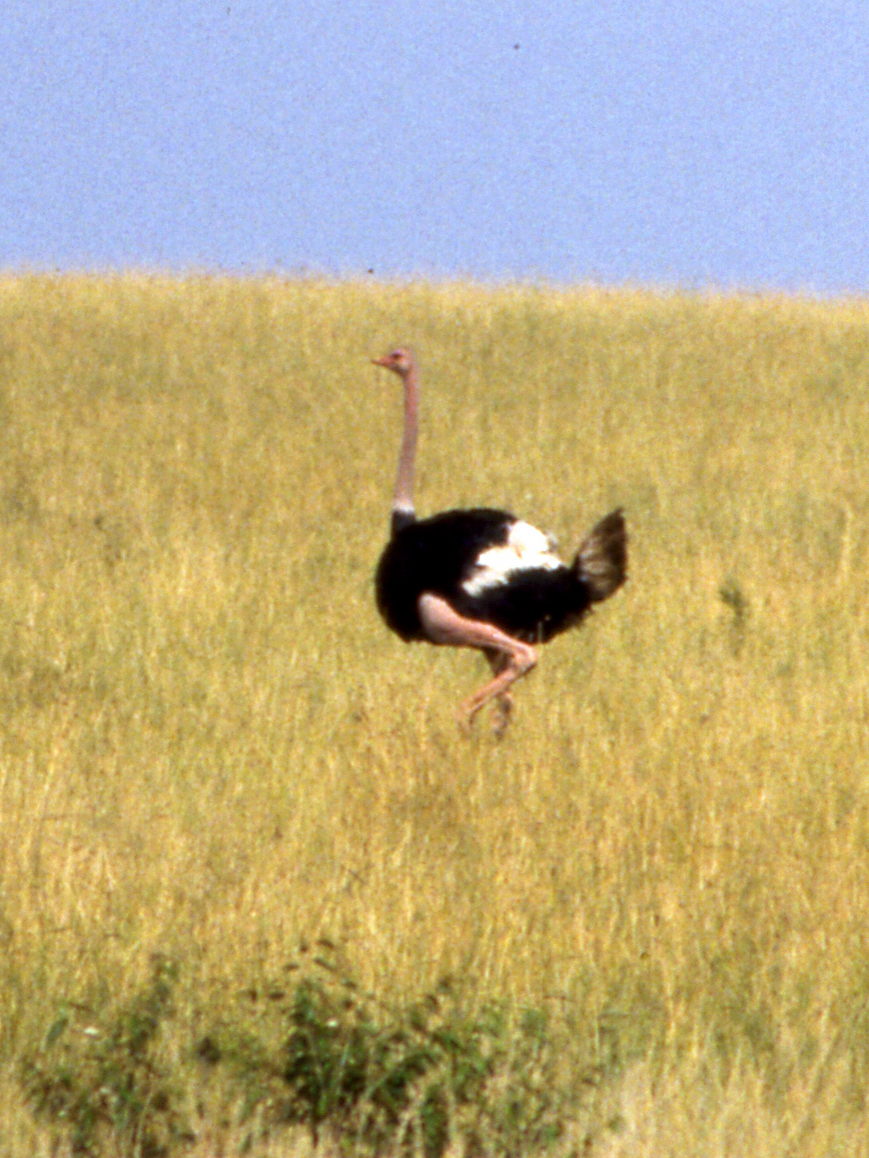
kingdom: Animalia
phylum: Chordata
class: Aves
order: Struthioniformes
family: Struthionidae
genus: Struthio
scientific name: Struthio camelus
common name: Common ostrich
